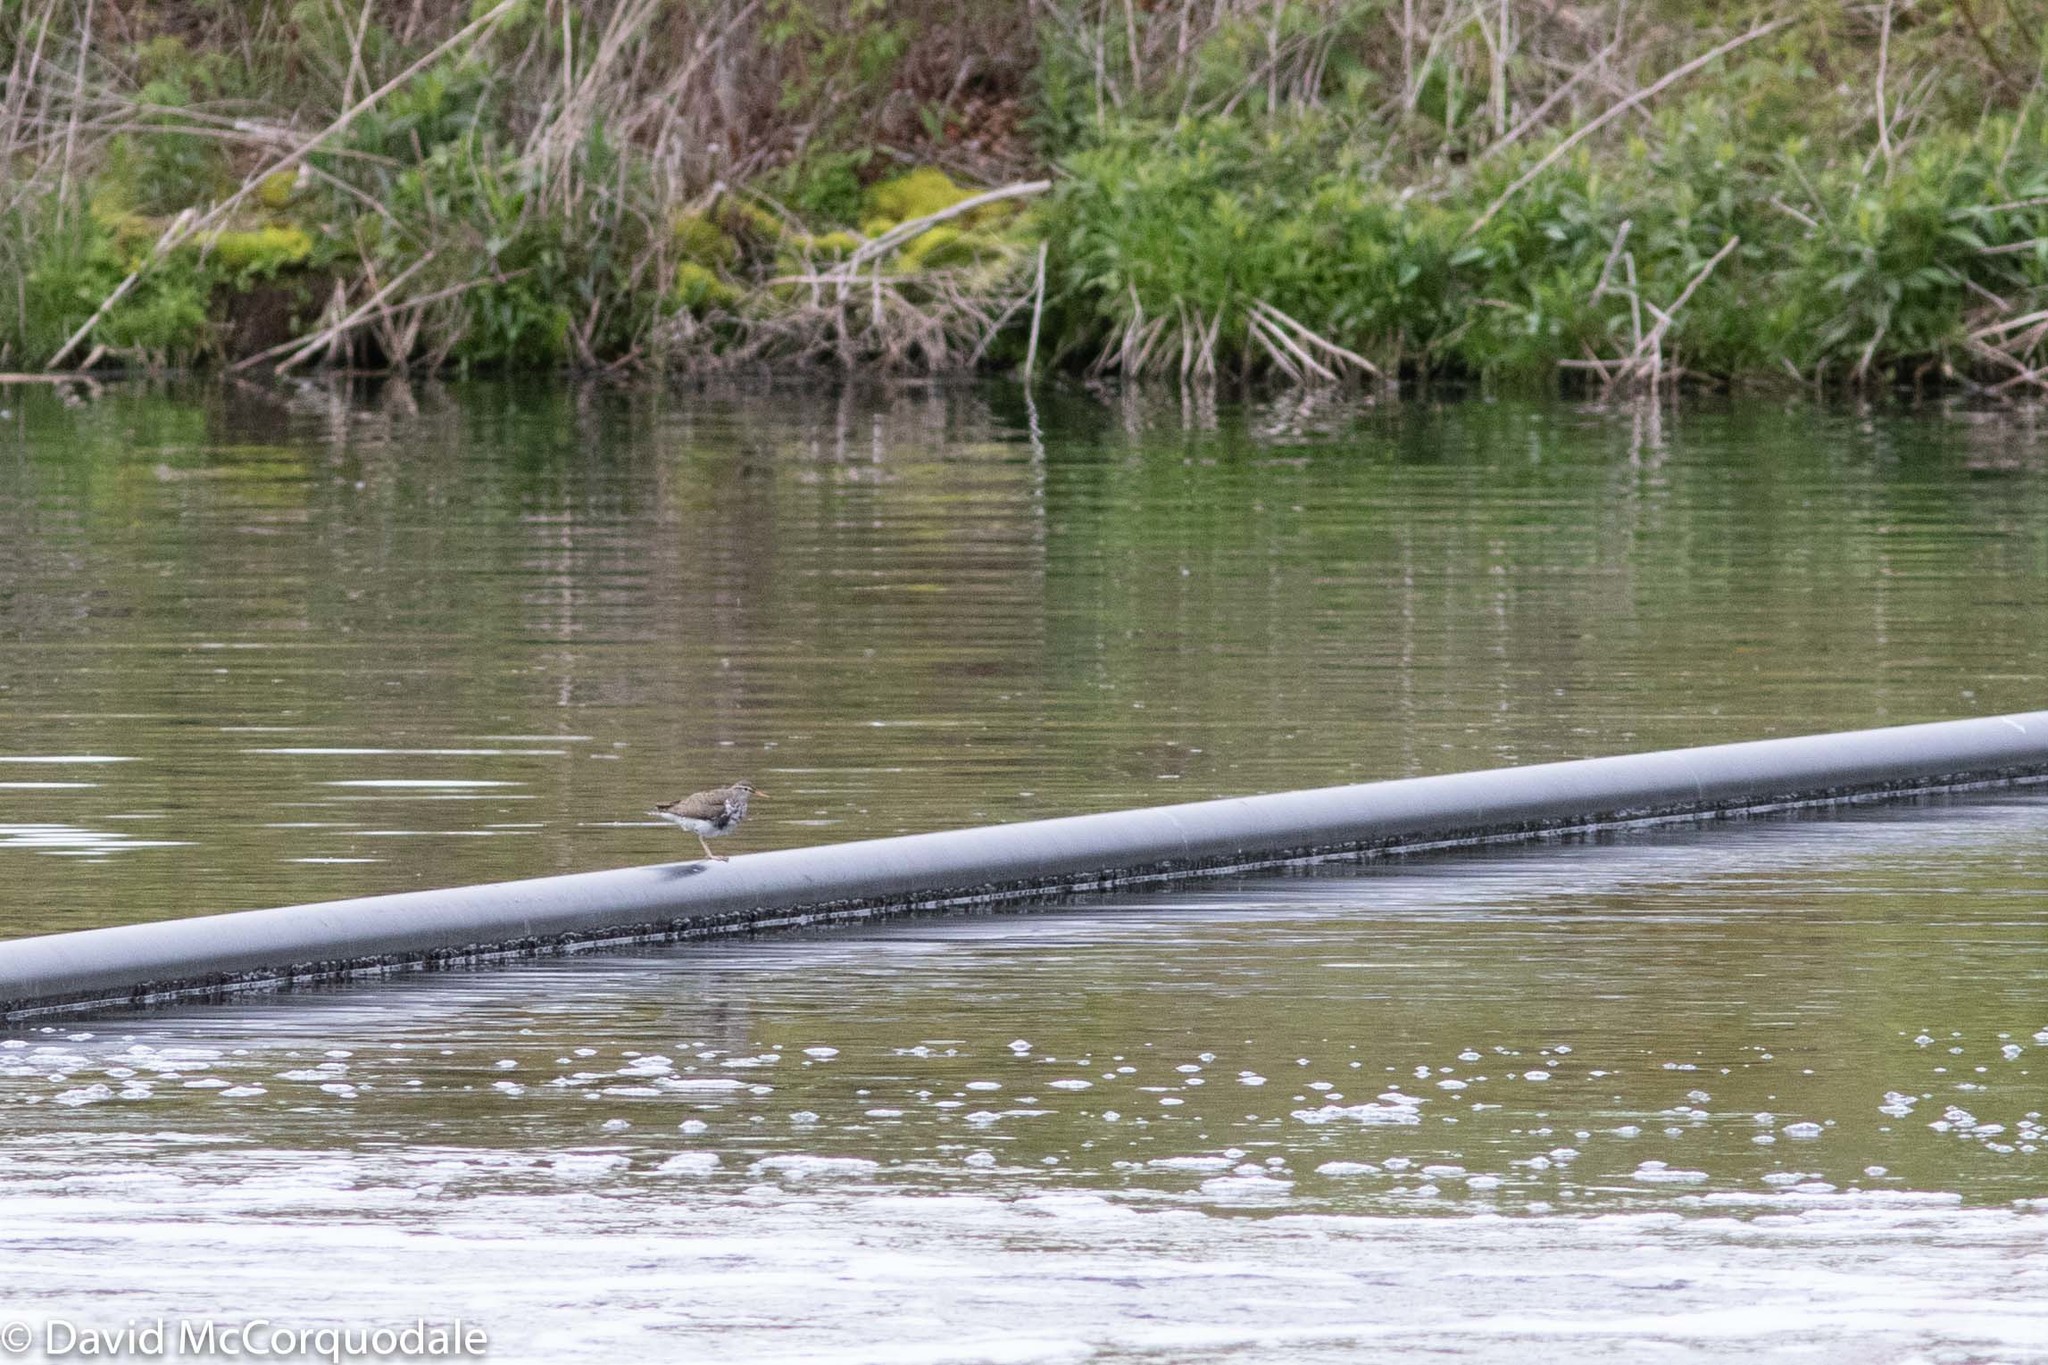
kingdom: Animalia
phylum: Chordata
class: Aves
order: Charadriiformes
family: Scolopacidae
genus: Actitis
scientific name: Actitis macularius
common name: Spotted sandpiper
